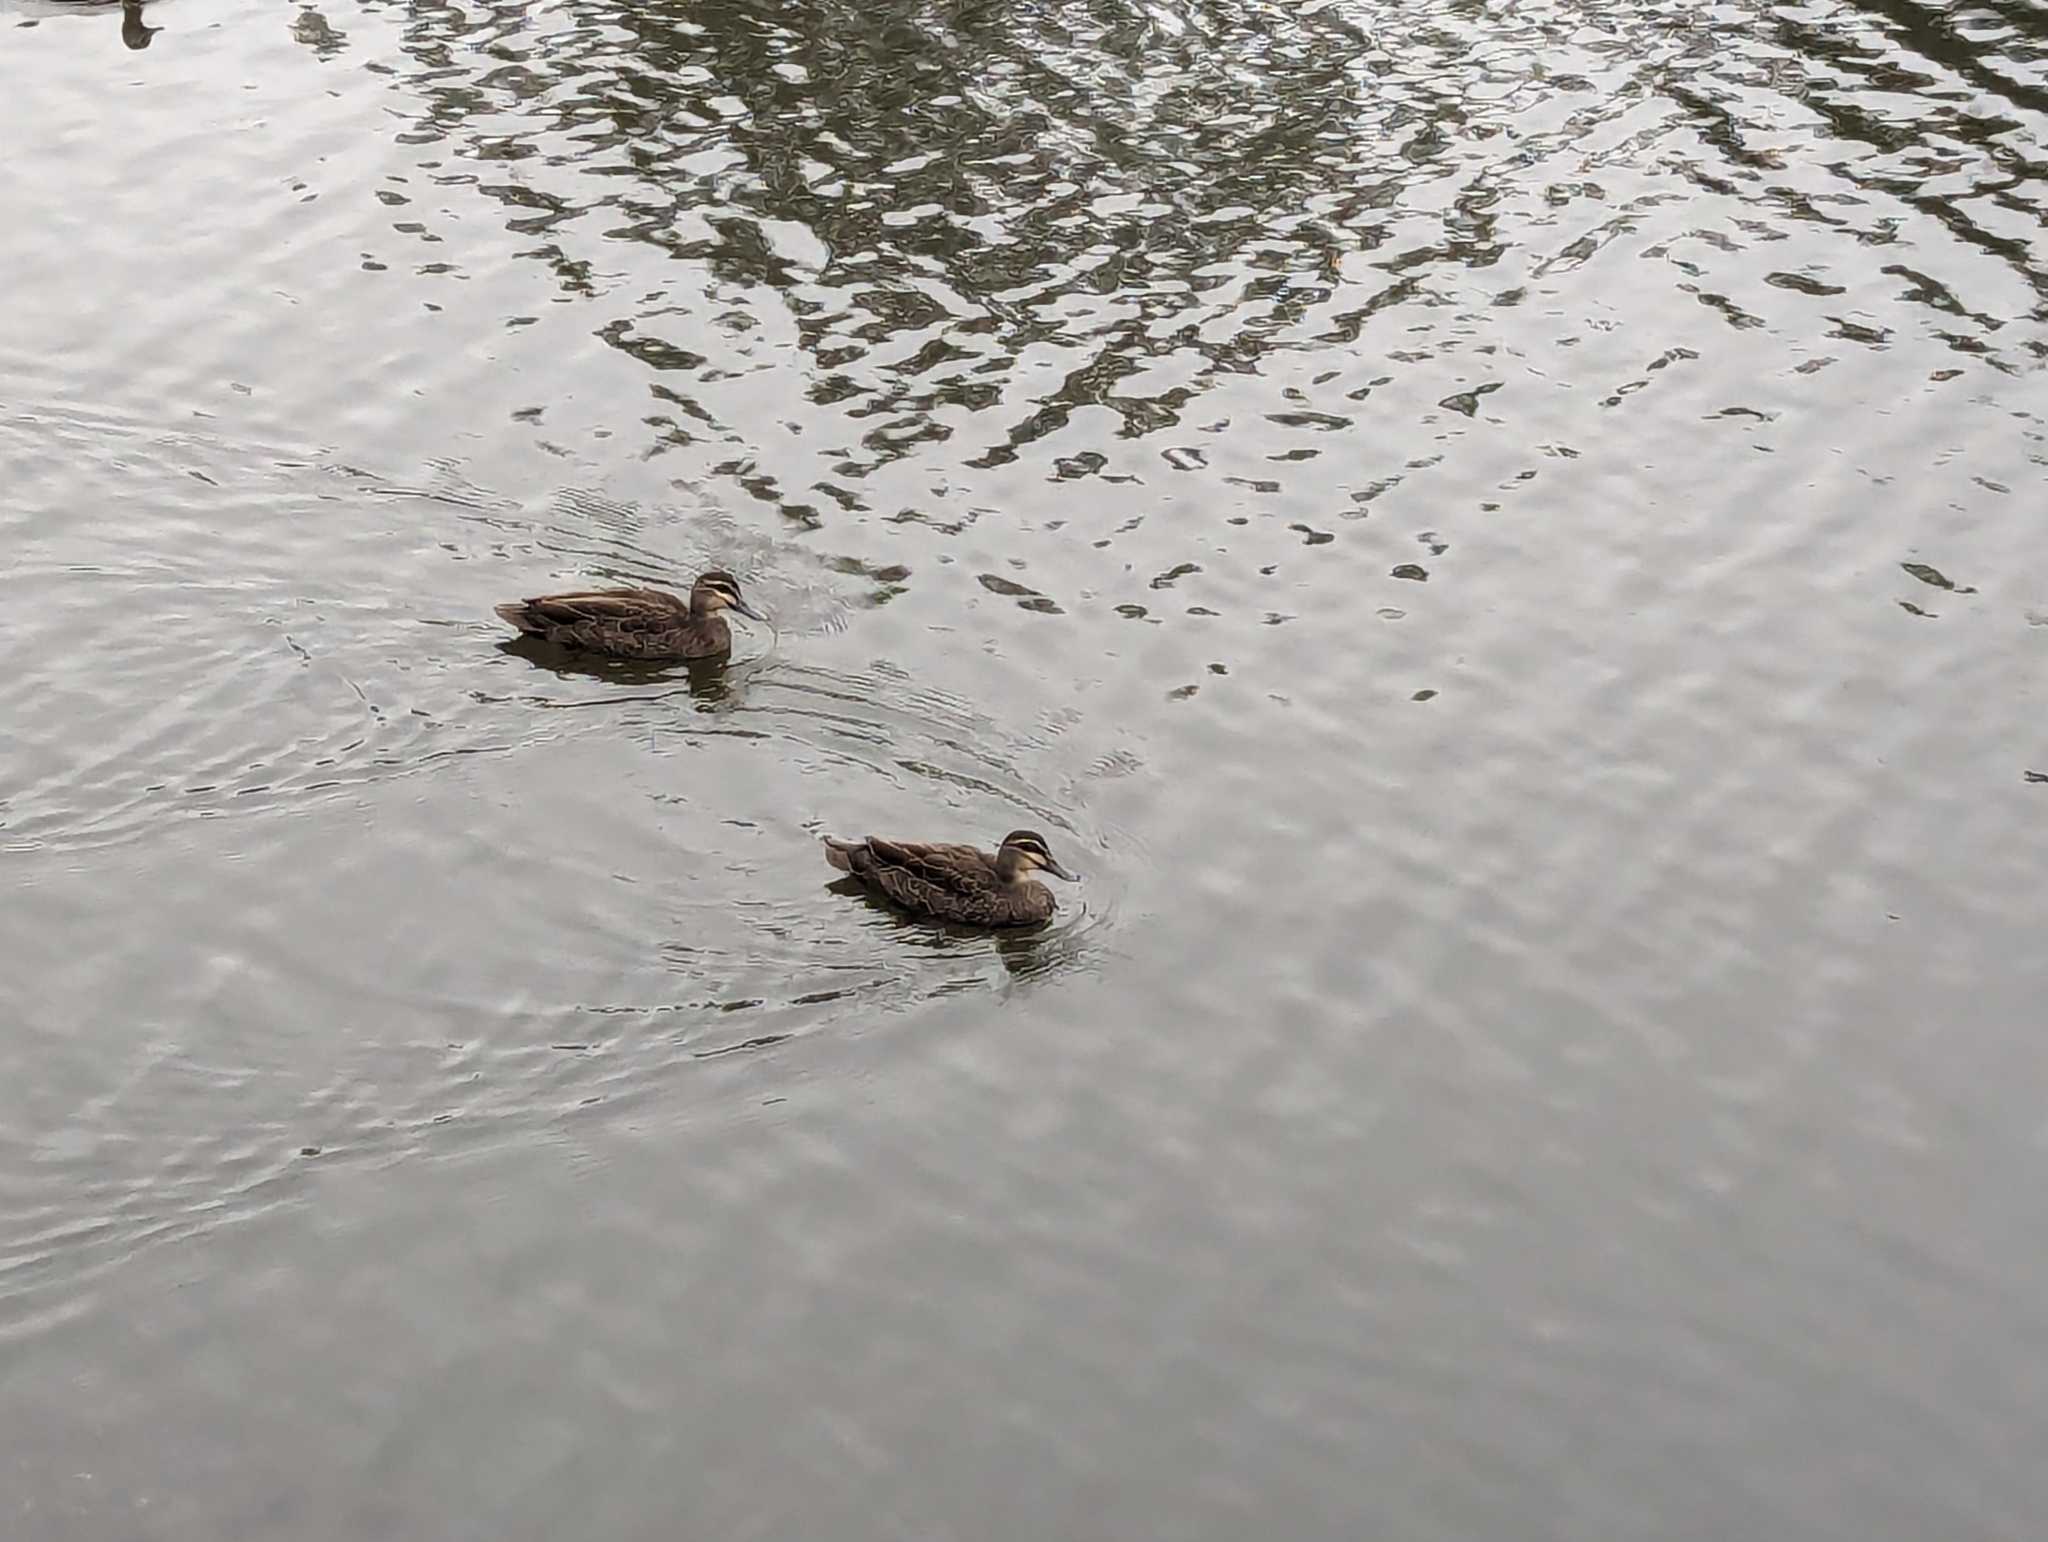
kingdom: Animalia
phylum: Chordata
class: Aves
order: Anseriformes
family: Anatidae
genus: Anas
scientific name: Anas superciliosa
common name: Pacific black duck
